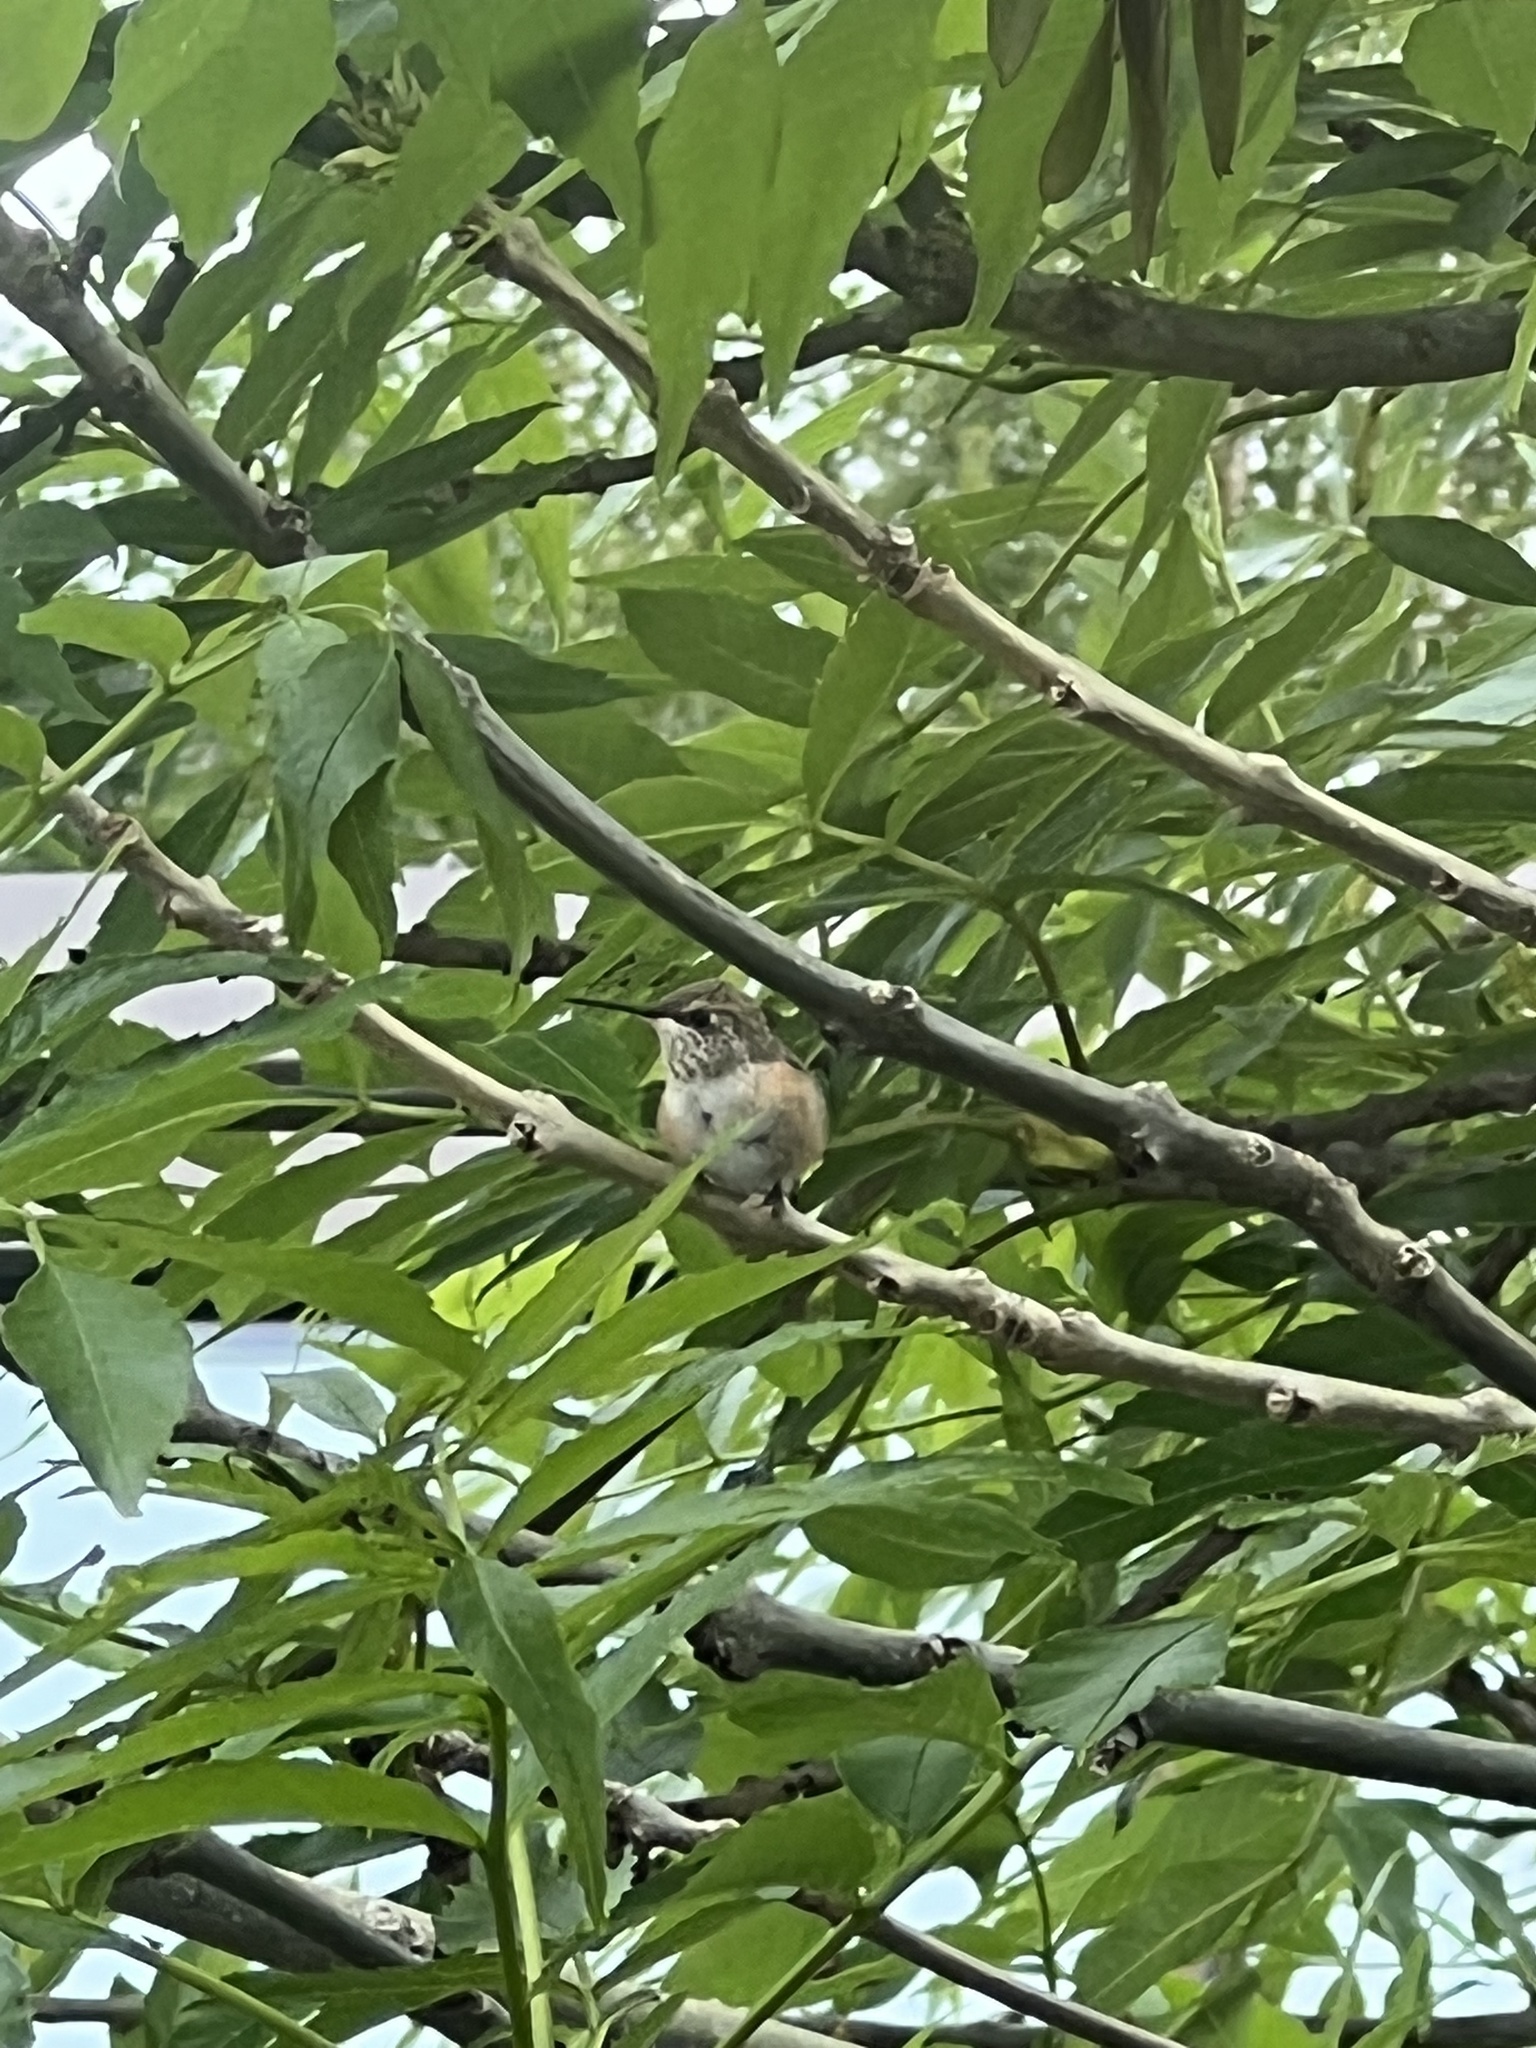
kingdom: Animalia
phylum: Chordata
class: Aves
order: Apodiformes
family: Trochilidae
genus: Selasphorus
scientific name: Selasphorus rufus
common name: Rufous hummingbird
